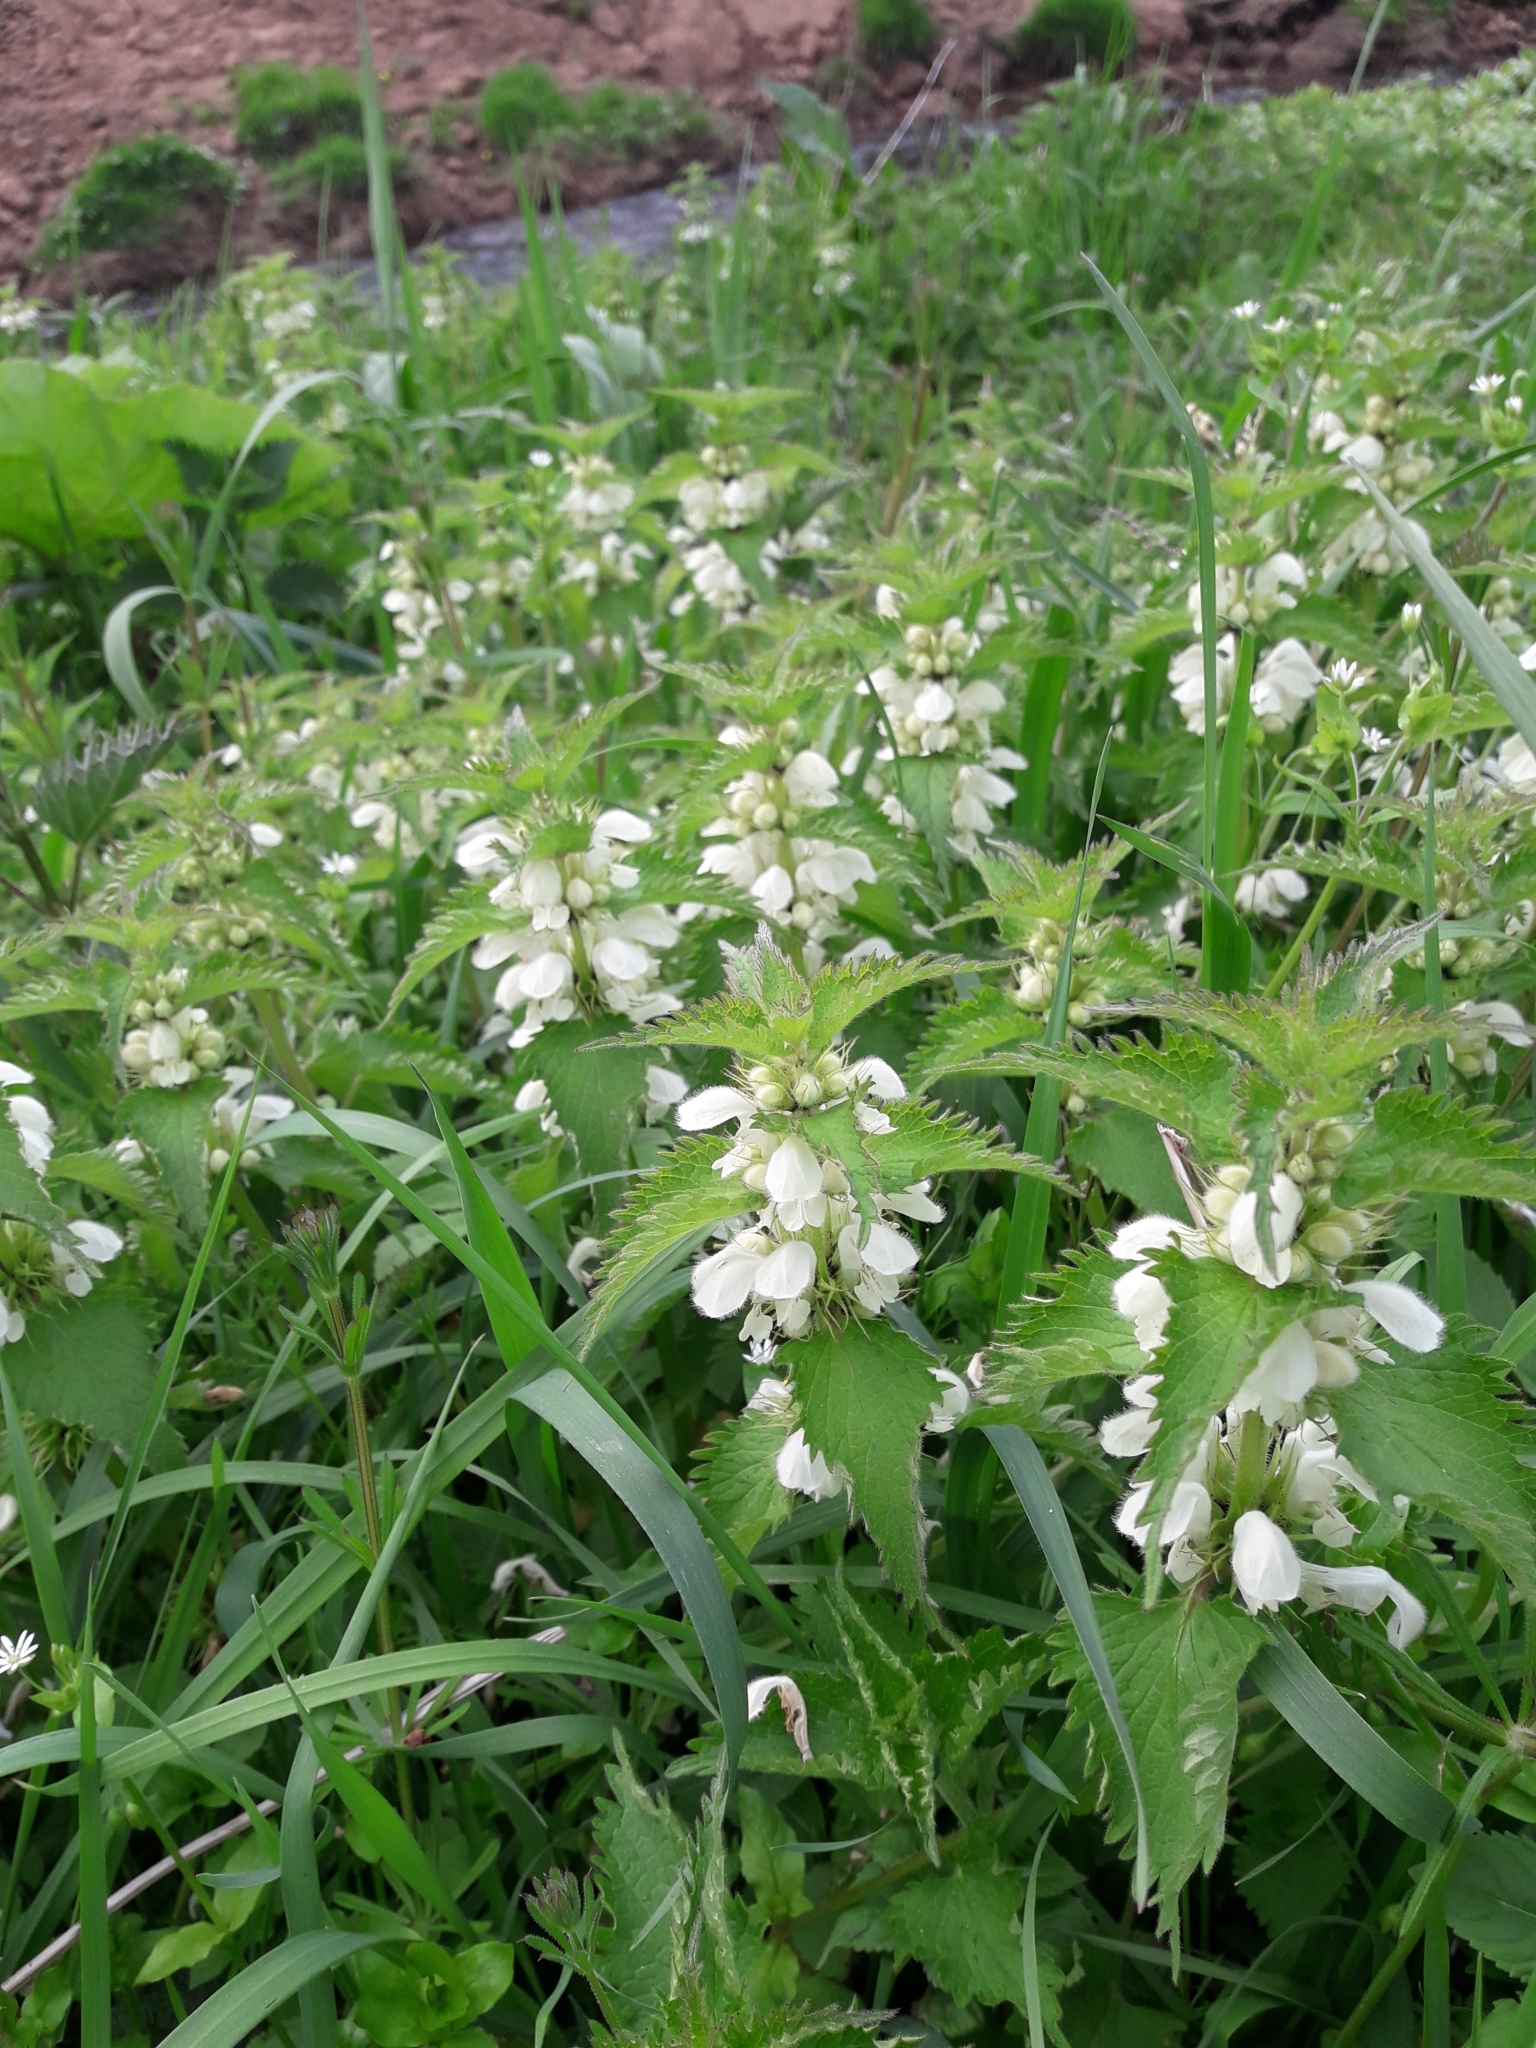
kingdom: Plantae
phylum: Tracheophyta
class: Magnoliopsida
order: Lamiales
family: Lamiaceae
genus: Lamium
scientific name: Lamium album
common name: White dead-nettle
